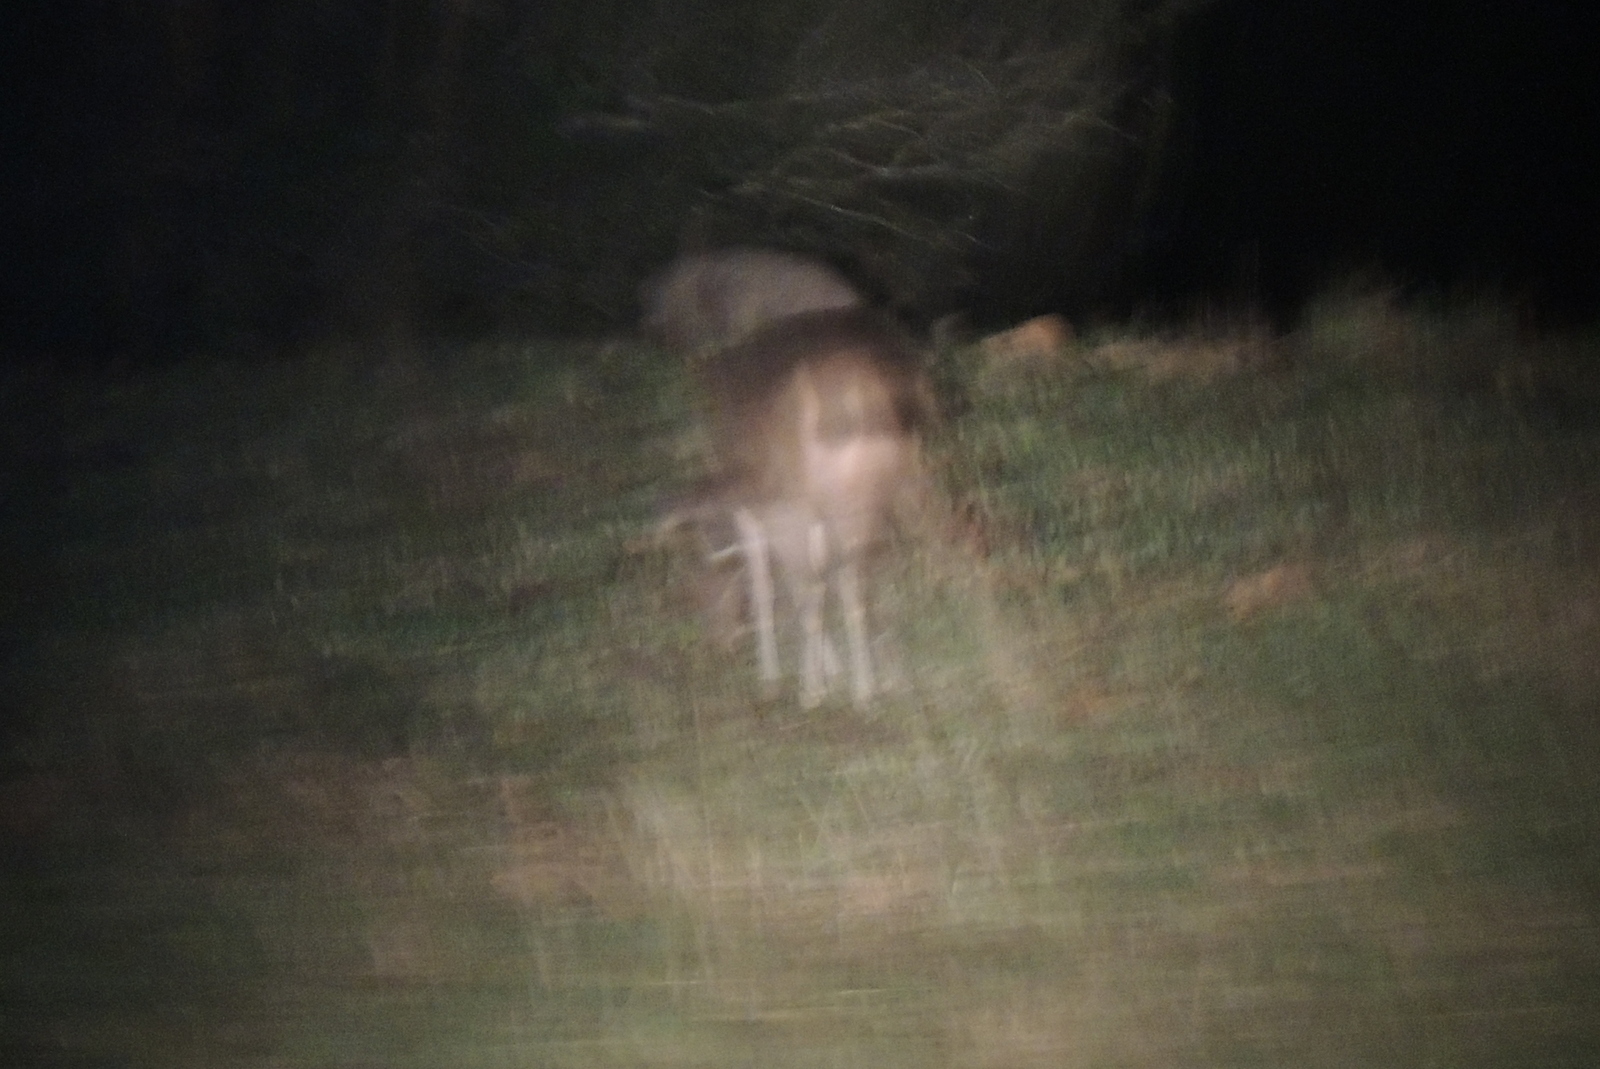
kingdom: Animalia
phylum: Chordata
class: Mammalia
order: Artiodactyla
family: Cervidae
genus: Rusa
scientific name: Rusa unicolor
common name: Sambar
